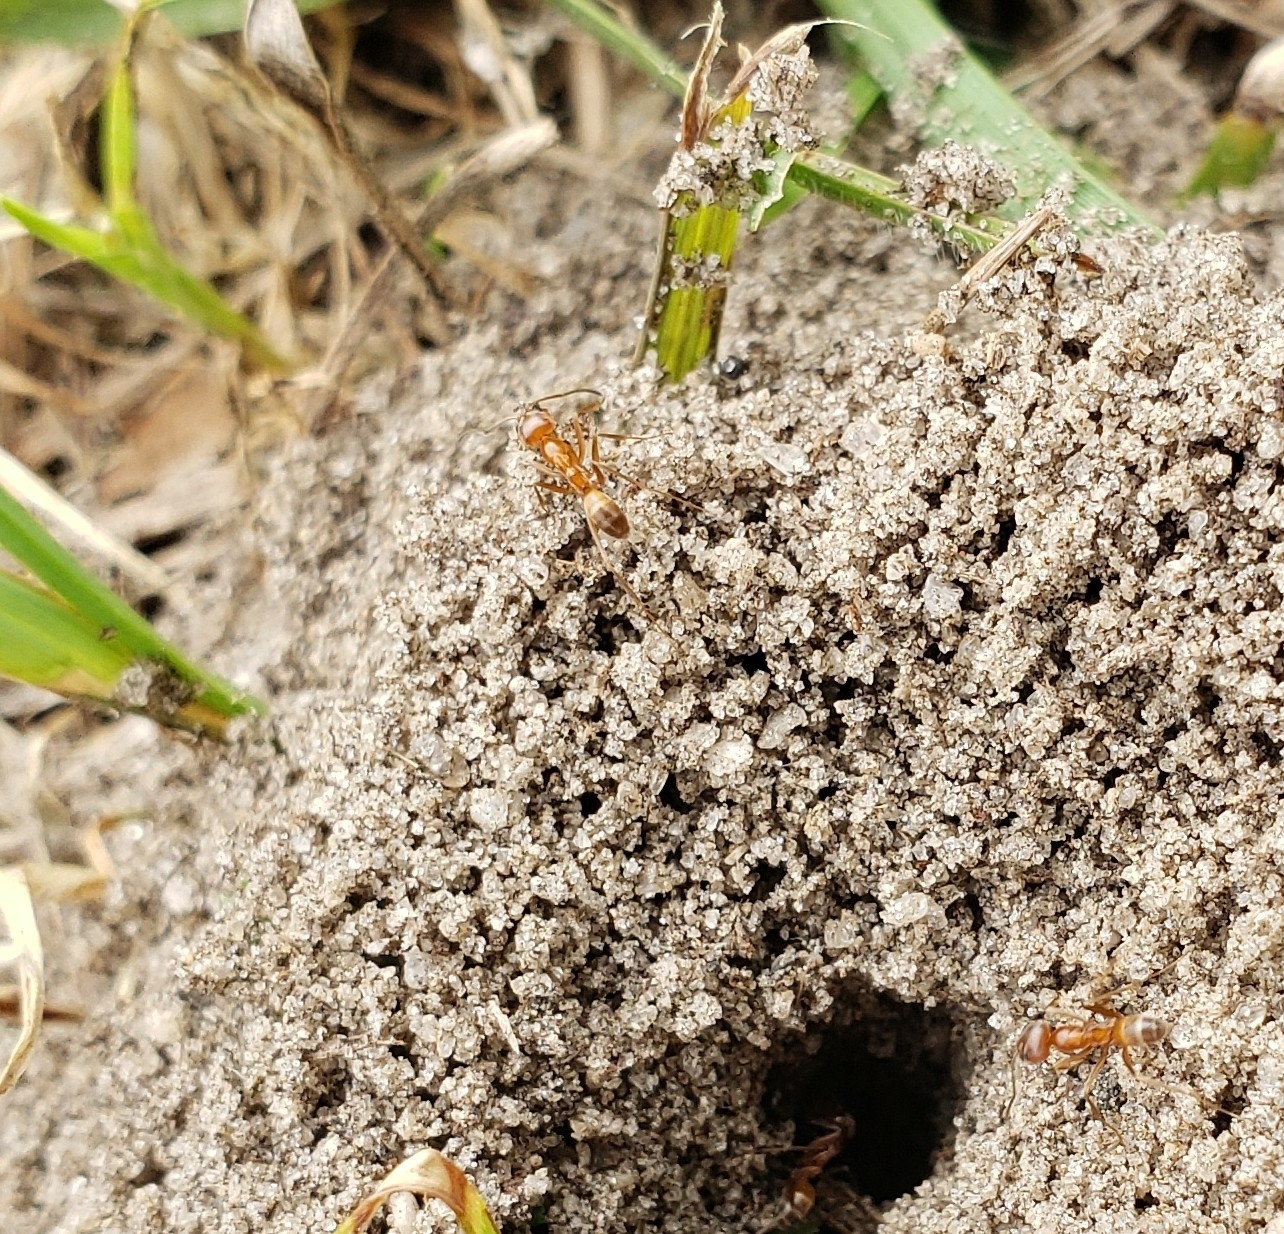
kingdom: Animalia
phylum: Arthropoda
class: Insecta
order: Hymenoptera
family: Formicidae
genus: Dorymyrmex
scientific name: Dorymyrmex bureni
